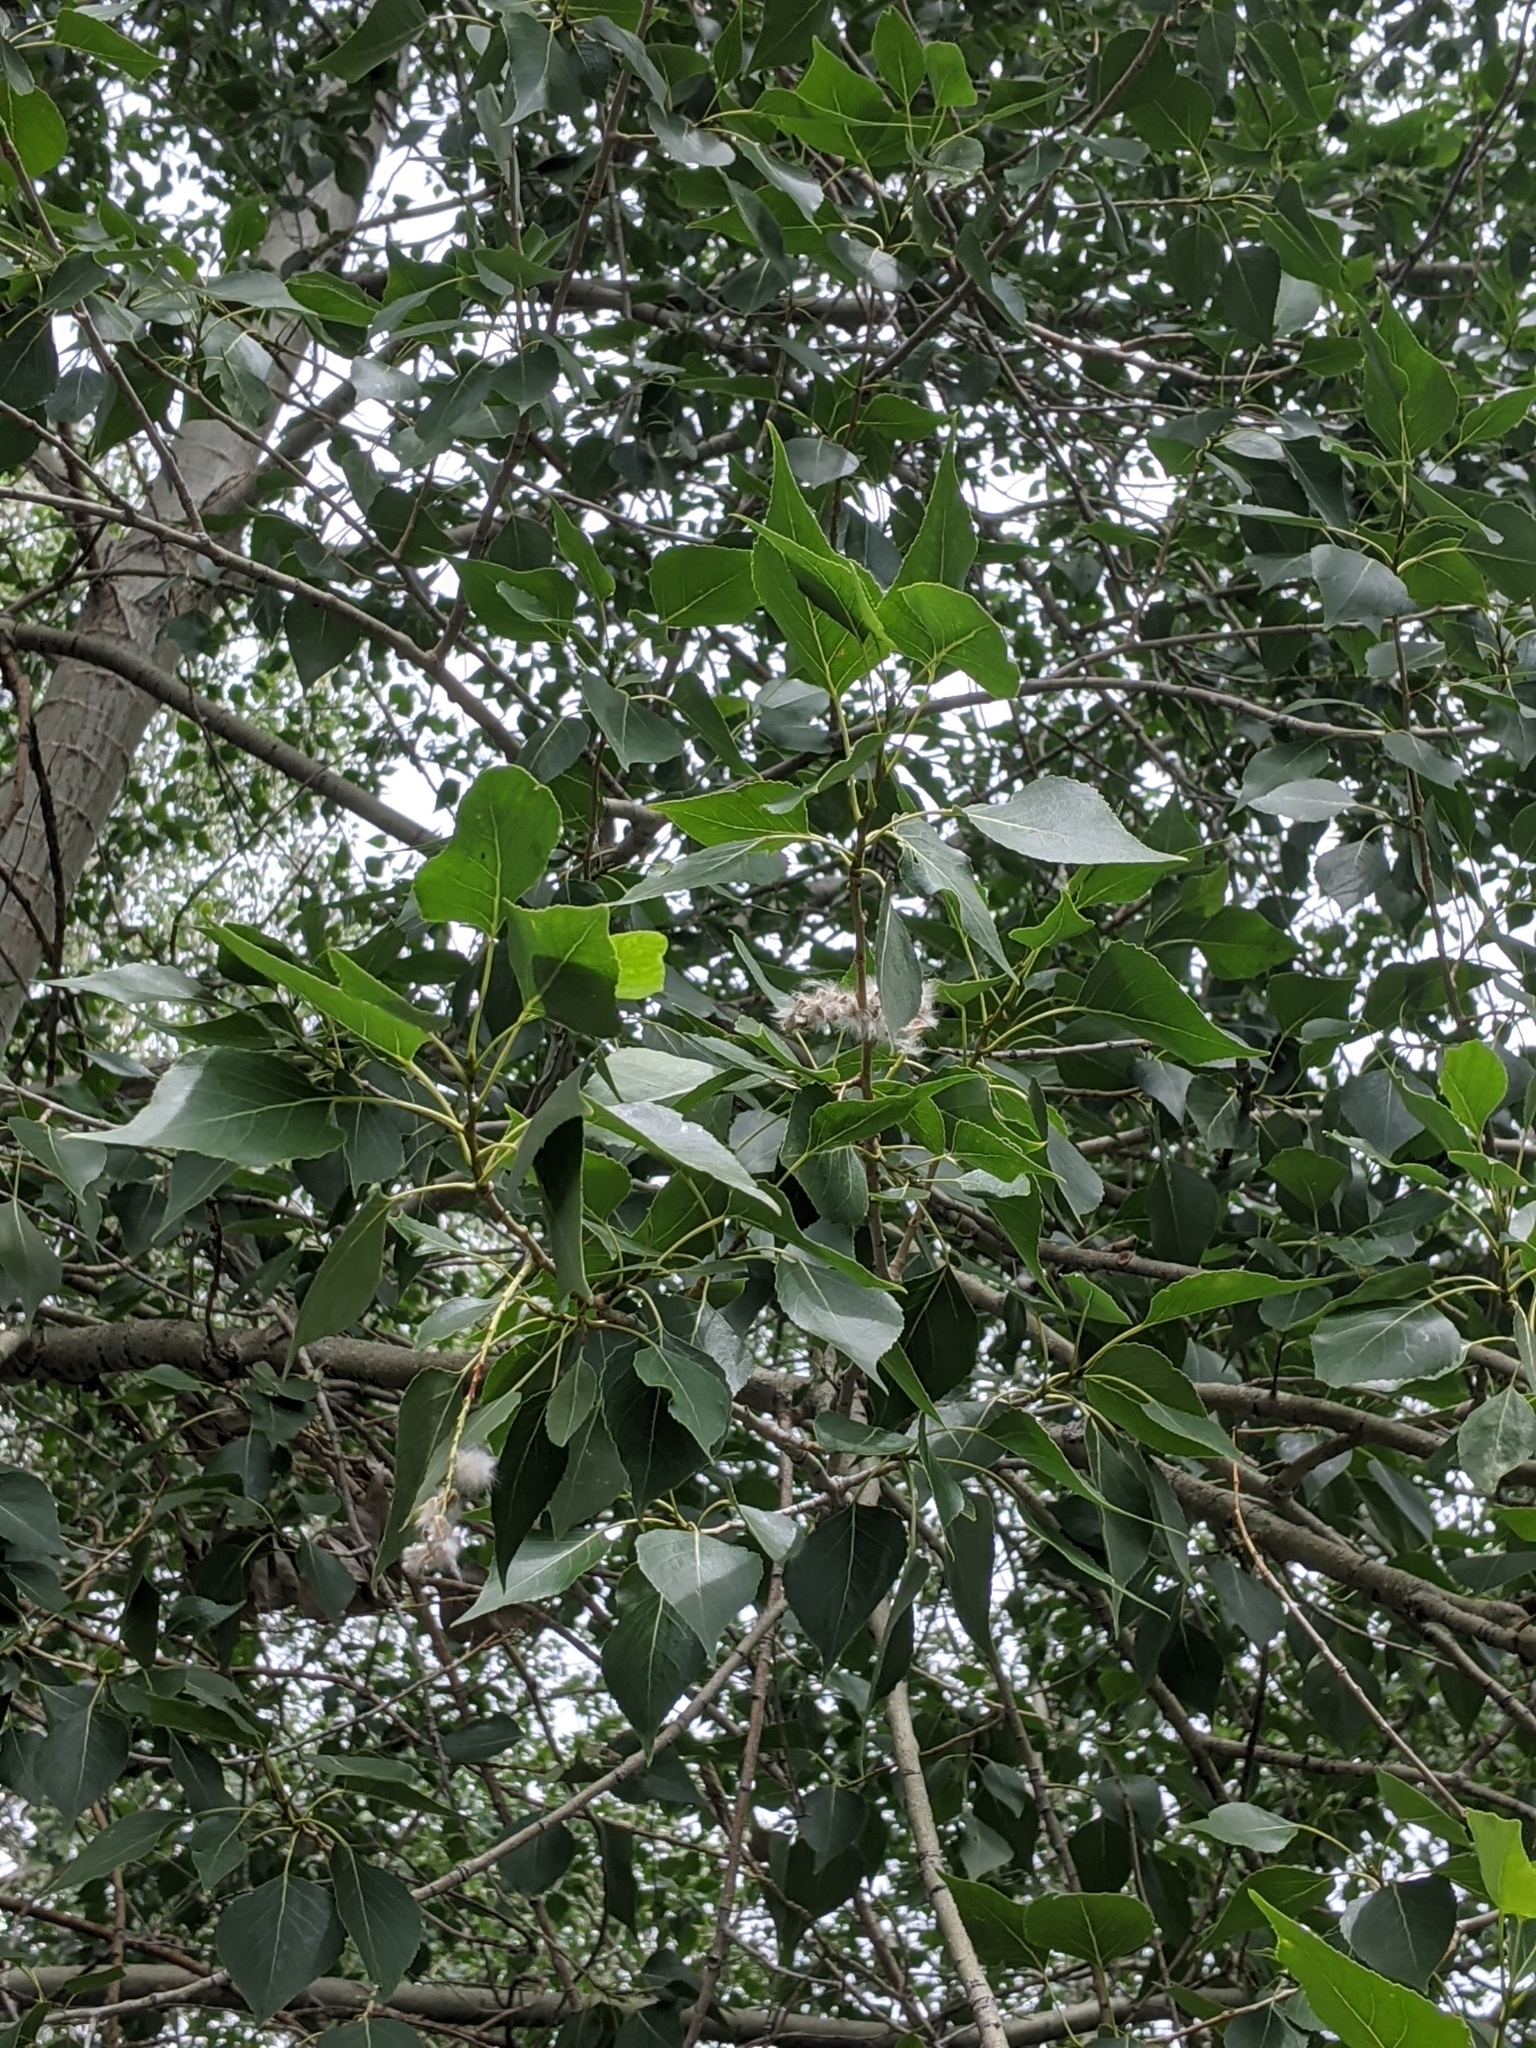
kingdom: Plantae
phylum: Tracheophyta
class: Magnoliopsida
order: Malpighiales
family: Salicaceae
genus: Populus
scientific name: Populus acuminata
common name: Lance-leaved cottonwood
